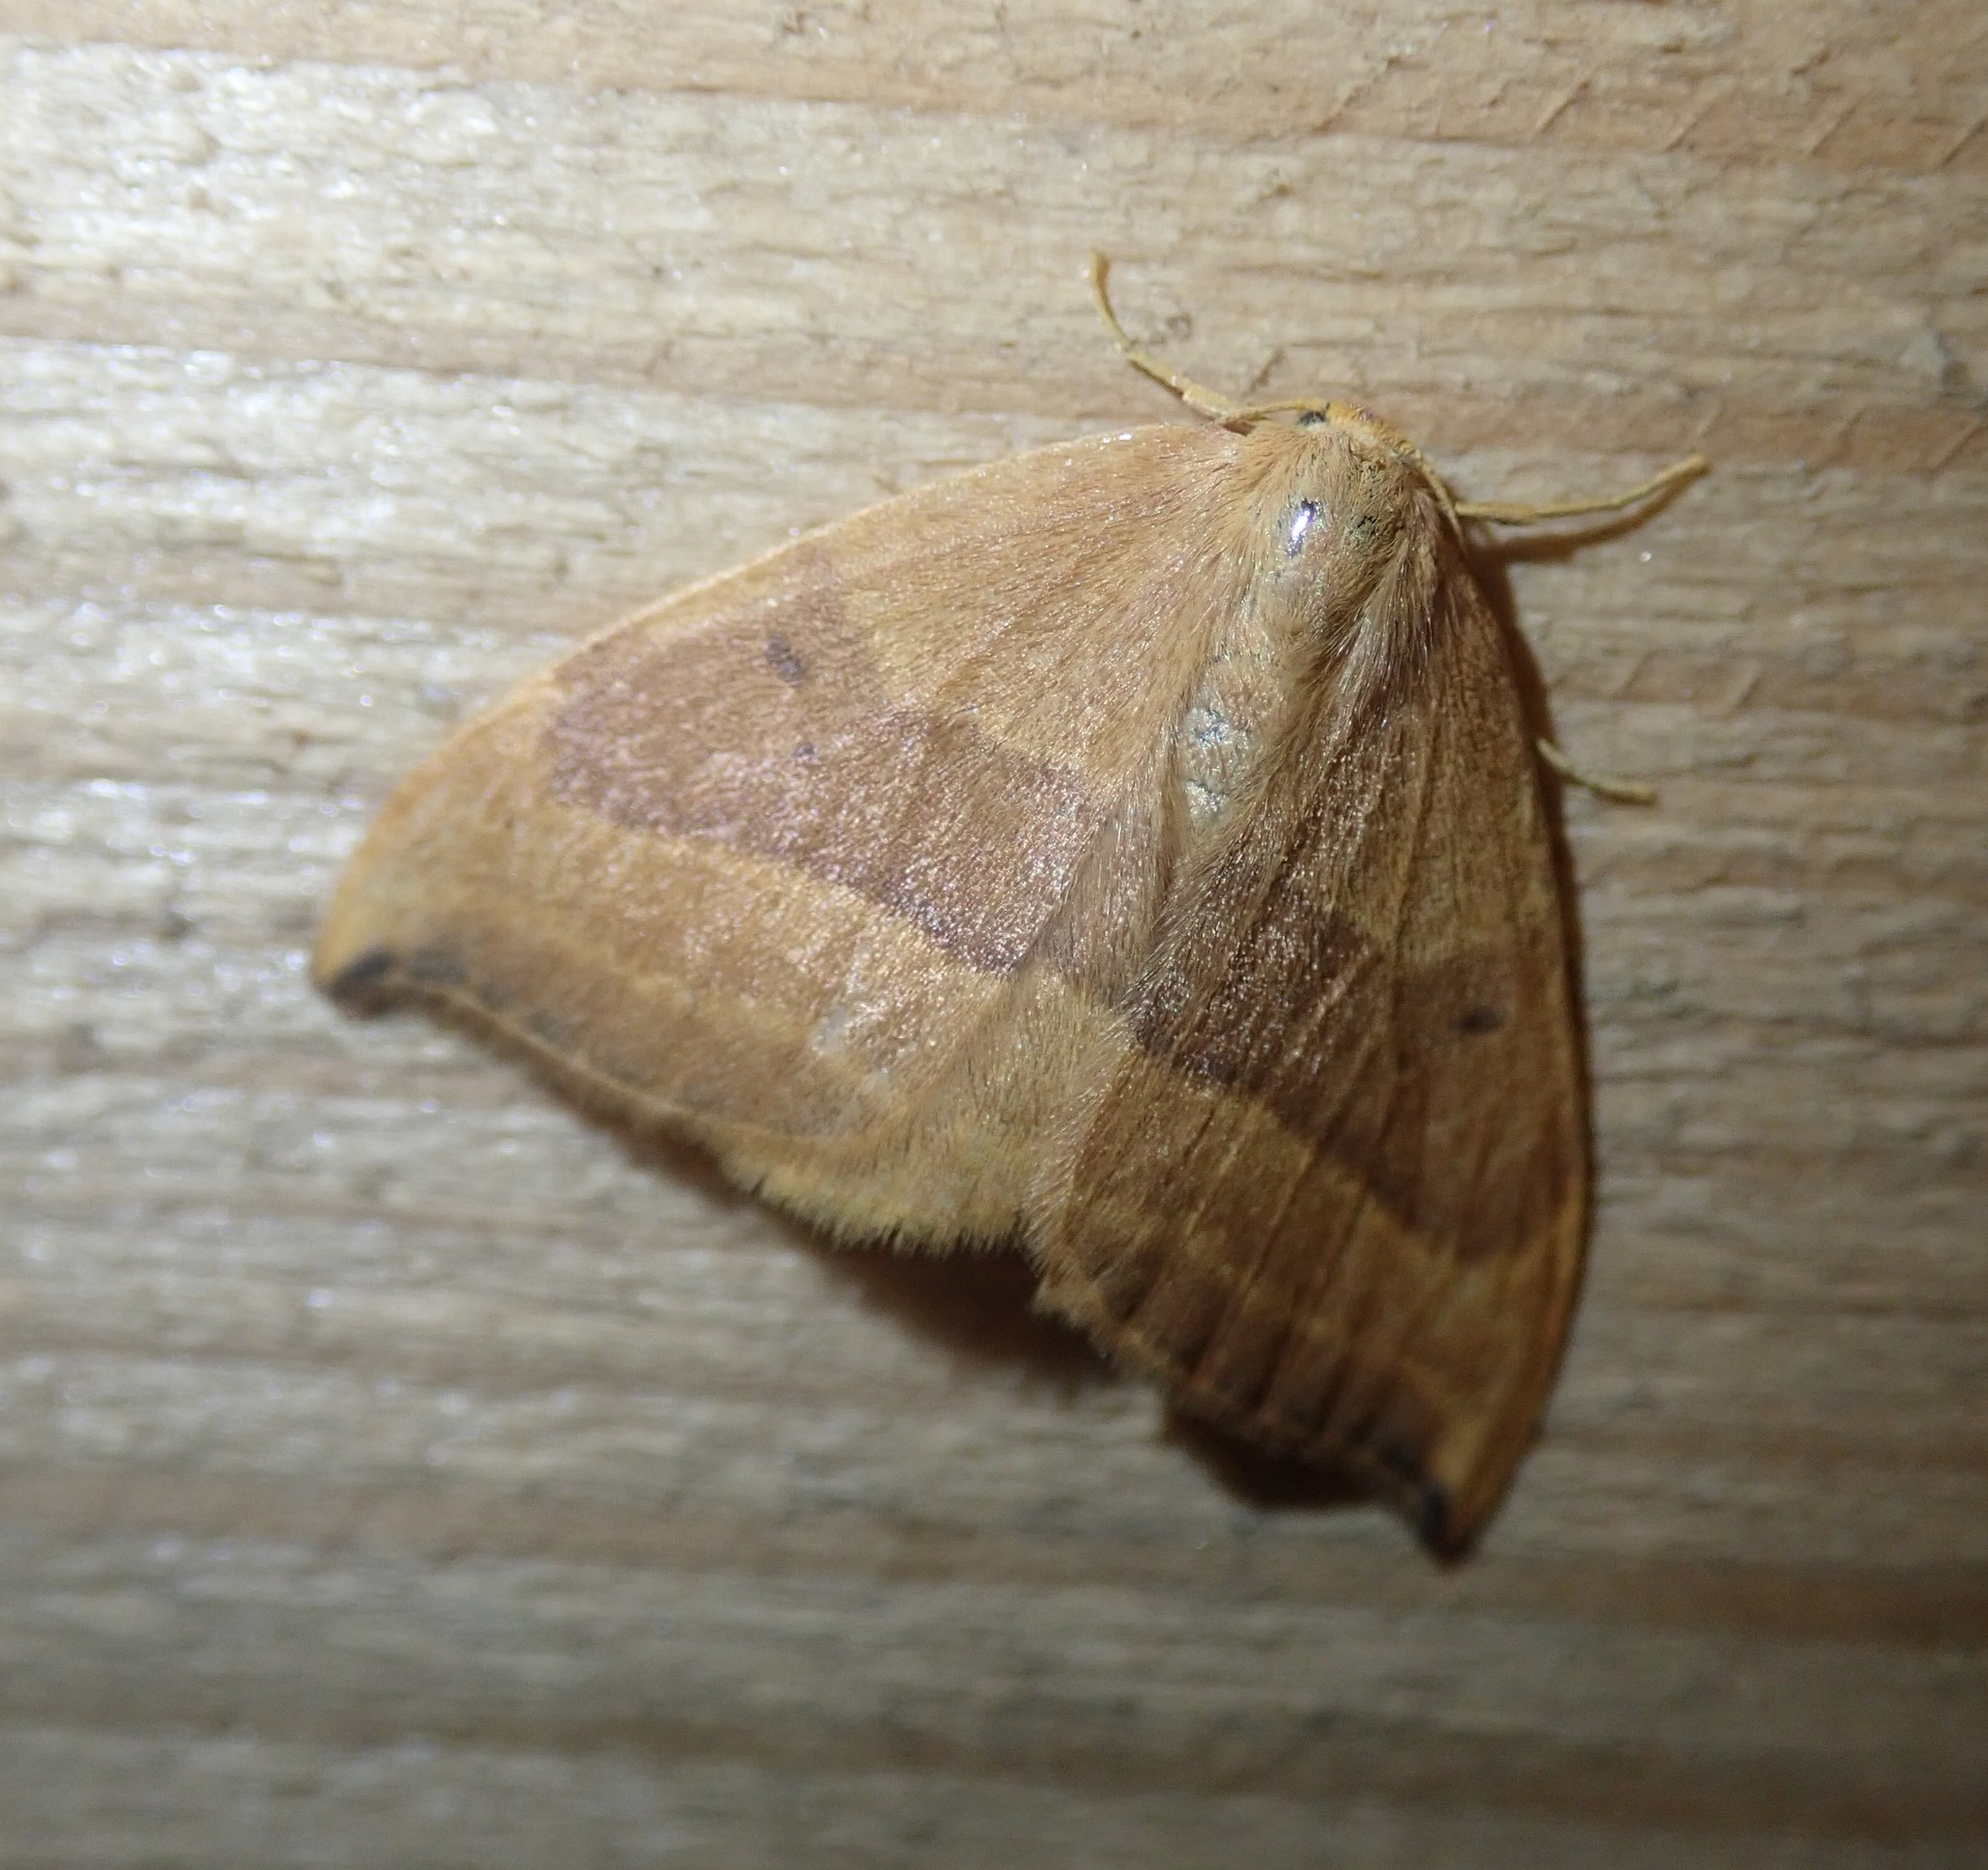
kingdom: Animalia
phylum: Arthropoda
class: Insecta
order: Lepidoptera
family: Drepanidae
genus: Watsonalla
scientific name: Watsonalla cultraria
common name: Barred hook-tip
